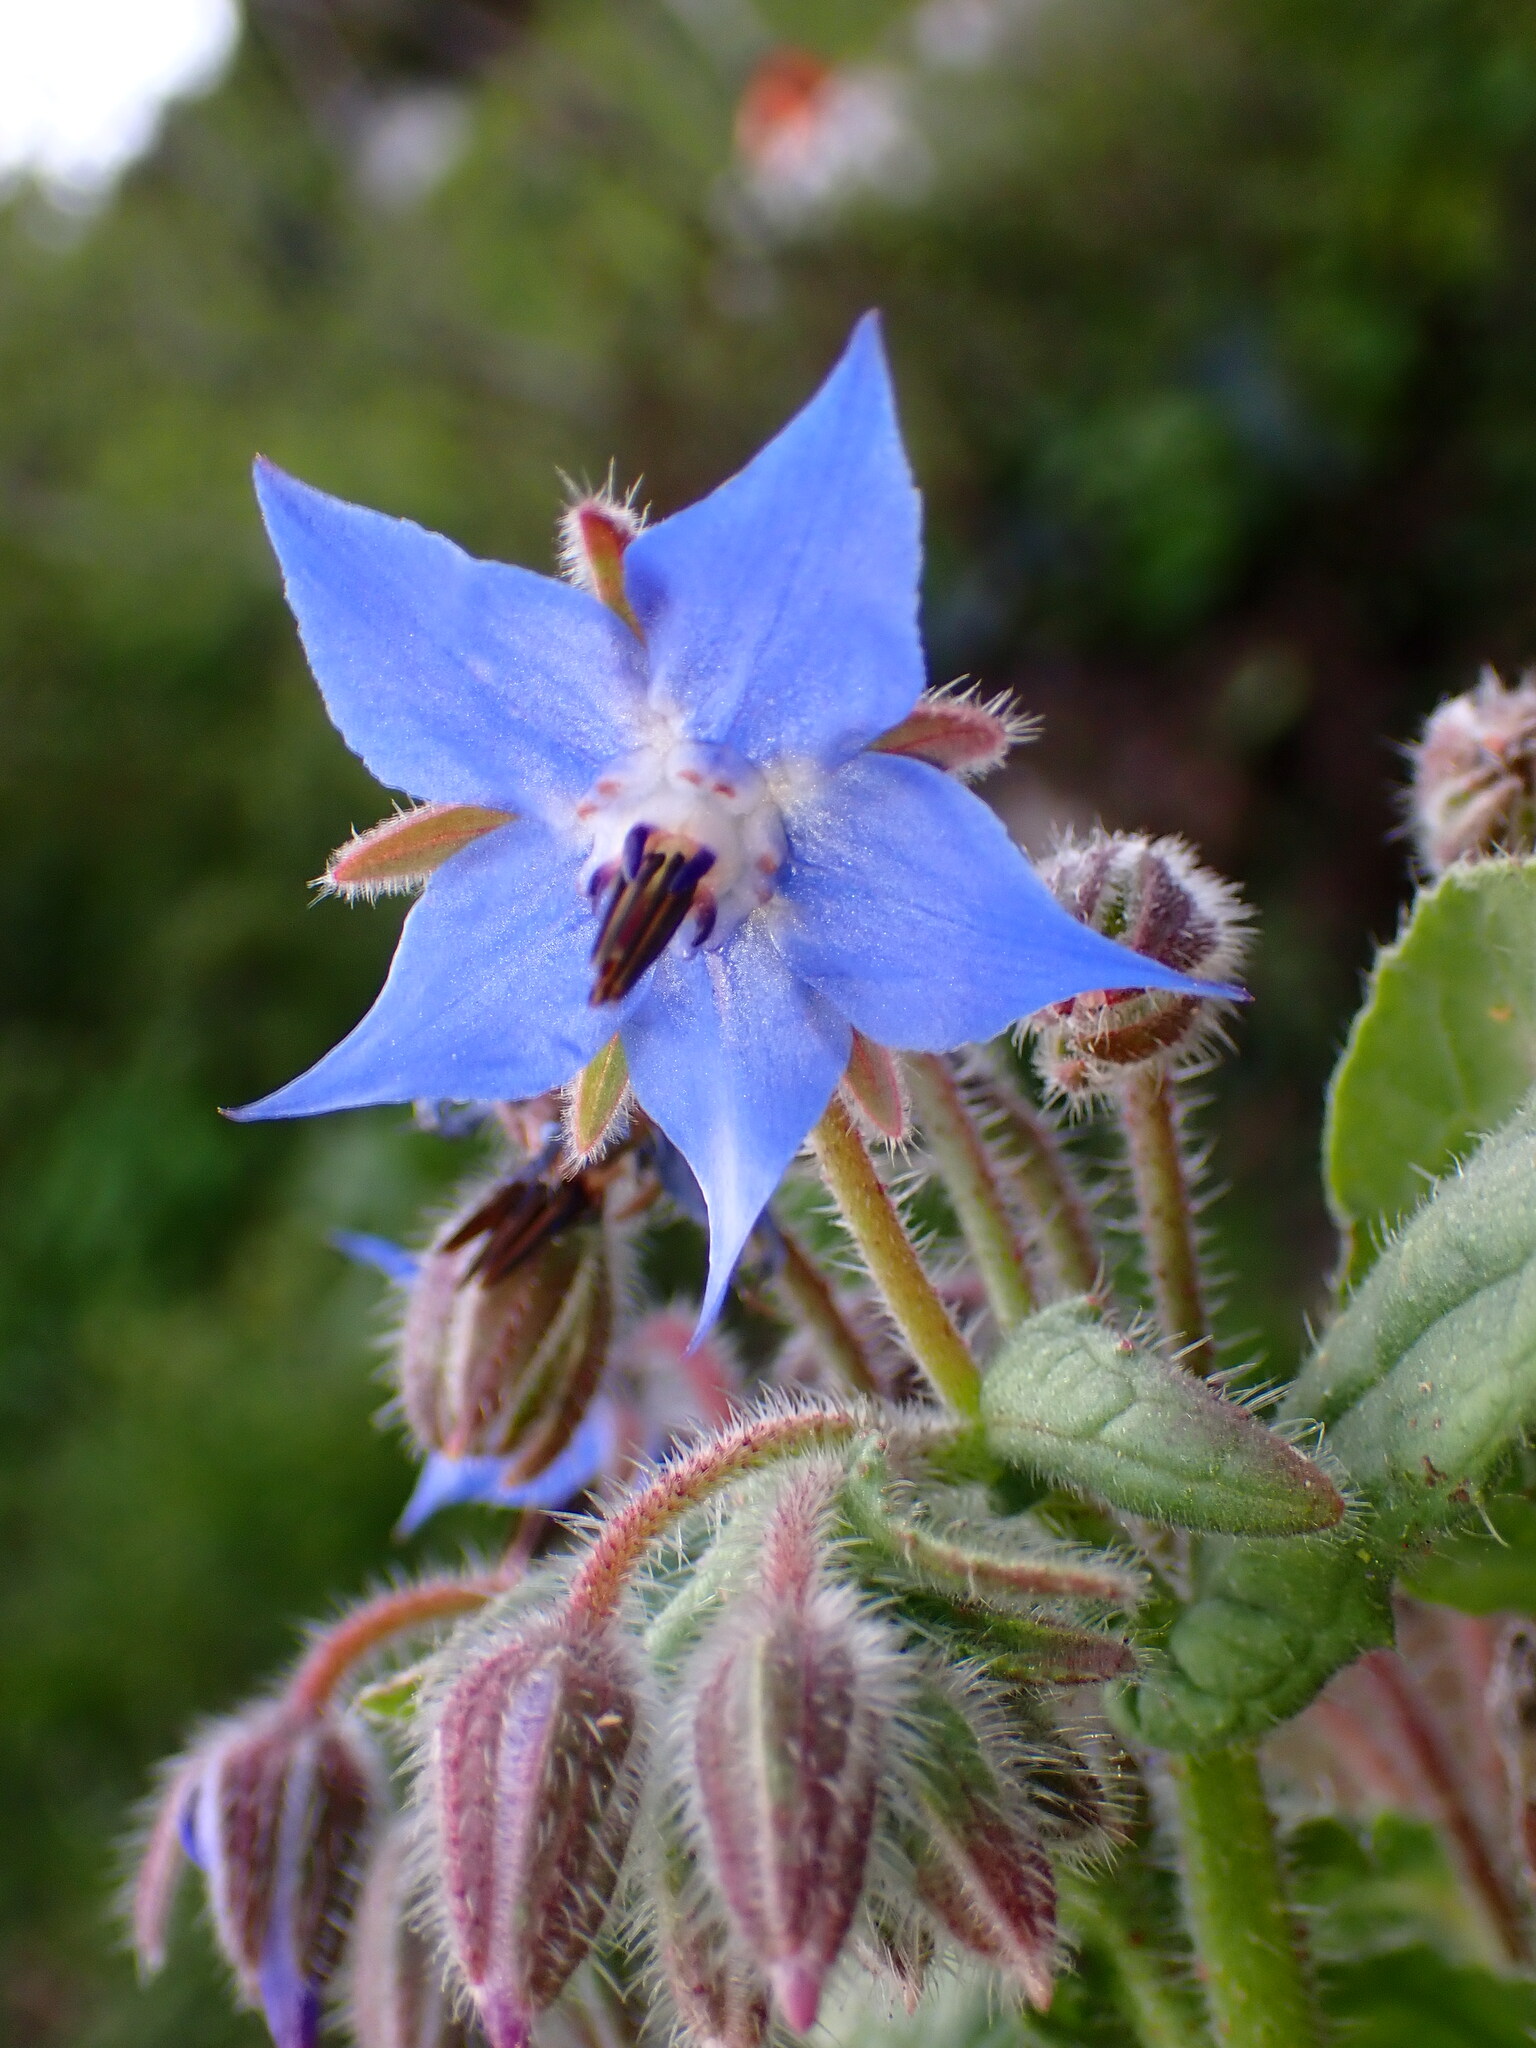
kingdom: Plantae
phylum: Tracheophyta
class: Magnoliopsida
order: Boraginales
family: Boraginaceae
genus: Borago
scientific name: Borago officinalis
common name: Borage
